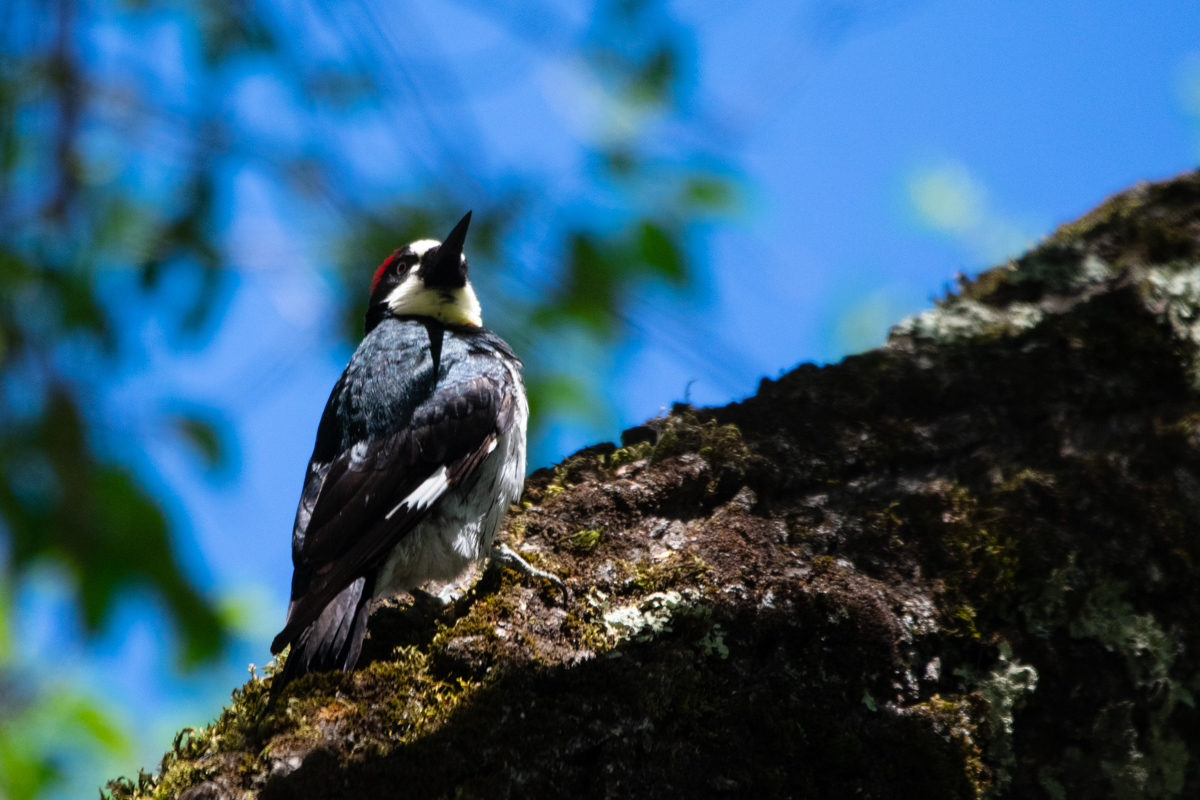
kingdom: Animalia
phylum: Chordata
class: Aves
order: Piciformes
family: Picidae
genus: Melanerpes
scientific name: Melanerpes formicivorus
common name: Acorn woodpecker
